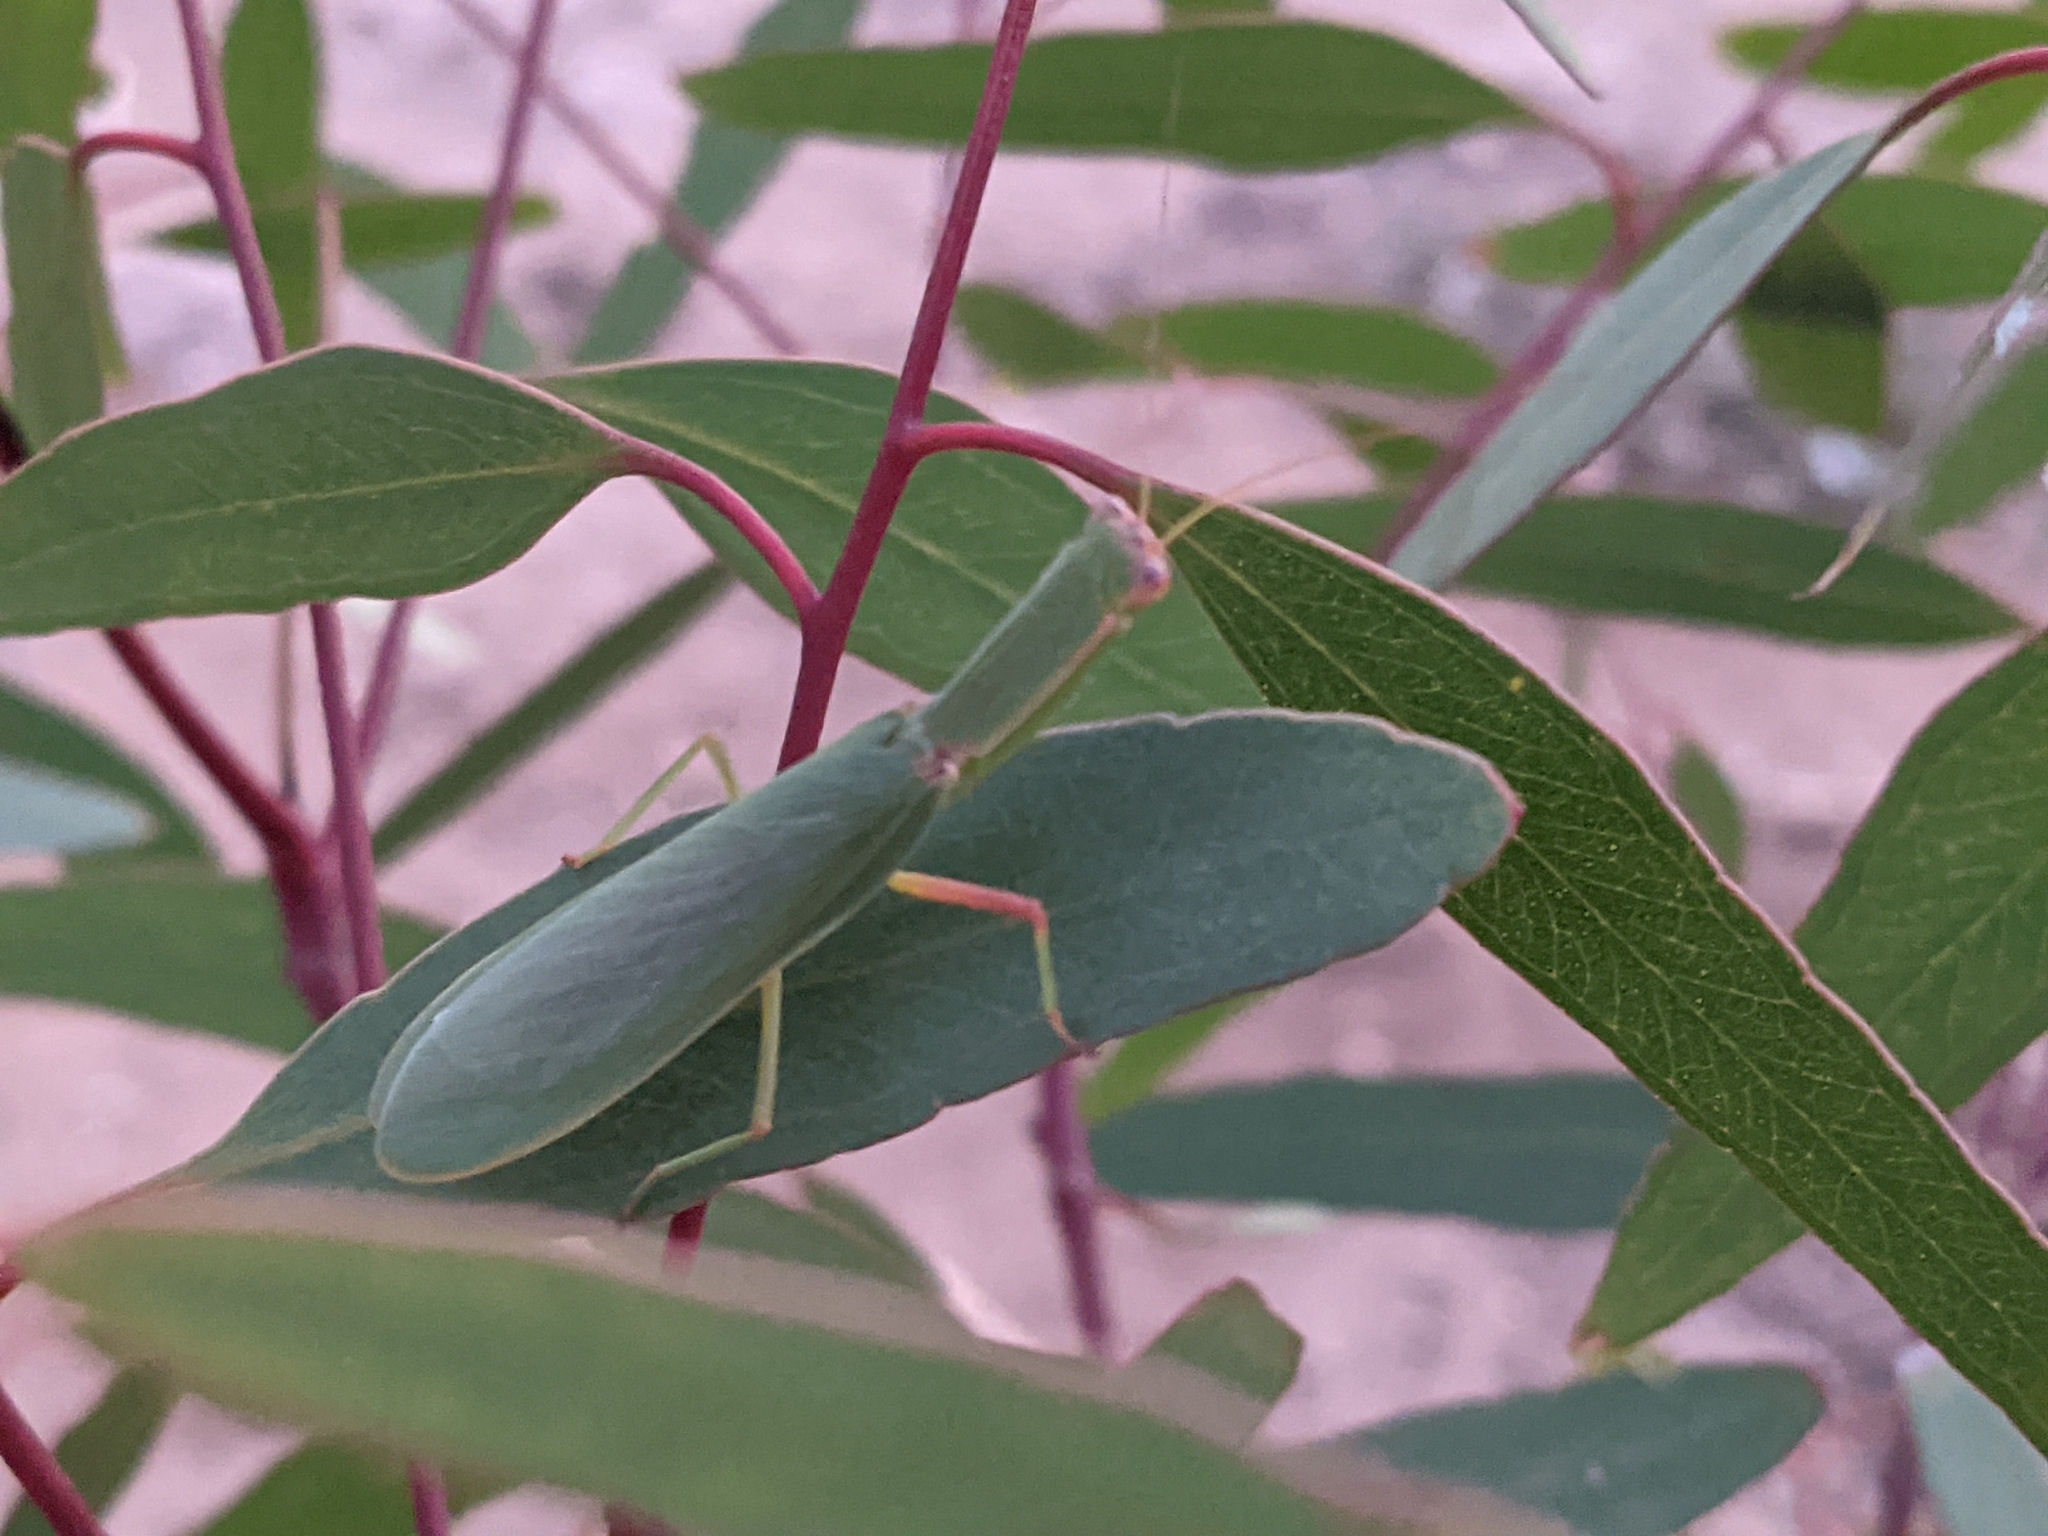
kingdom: Animalia
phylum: Arthropoda
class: Insecta
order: Mantodea
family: Mantidae
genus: Orthodera
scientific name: Orthodera ministralis
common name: Mantis
